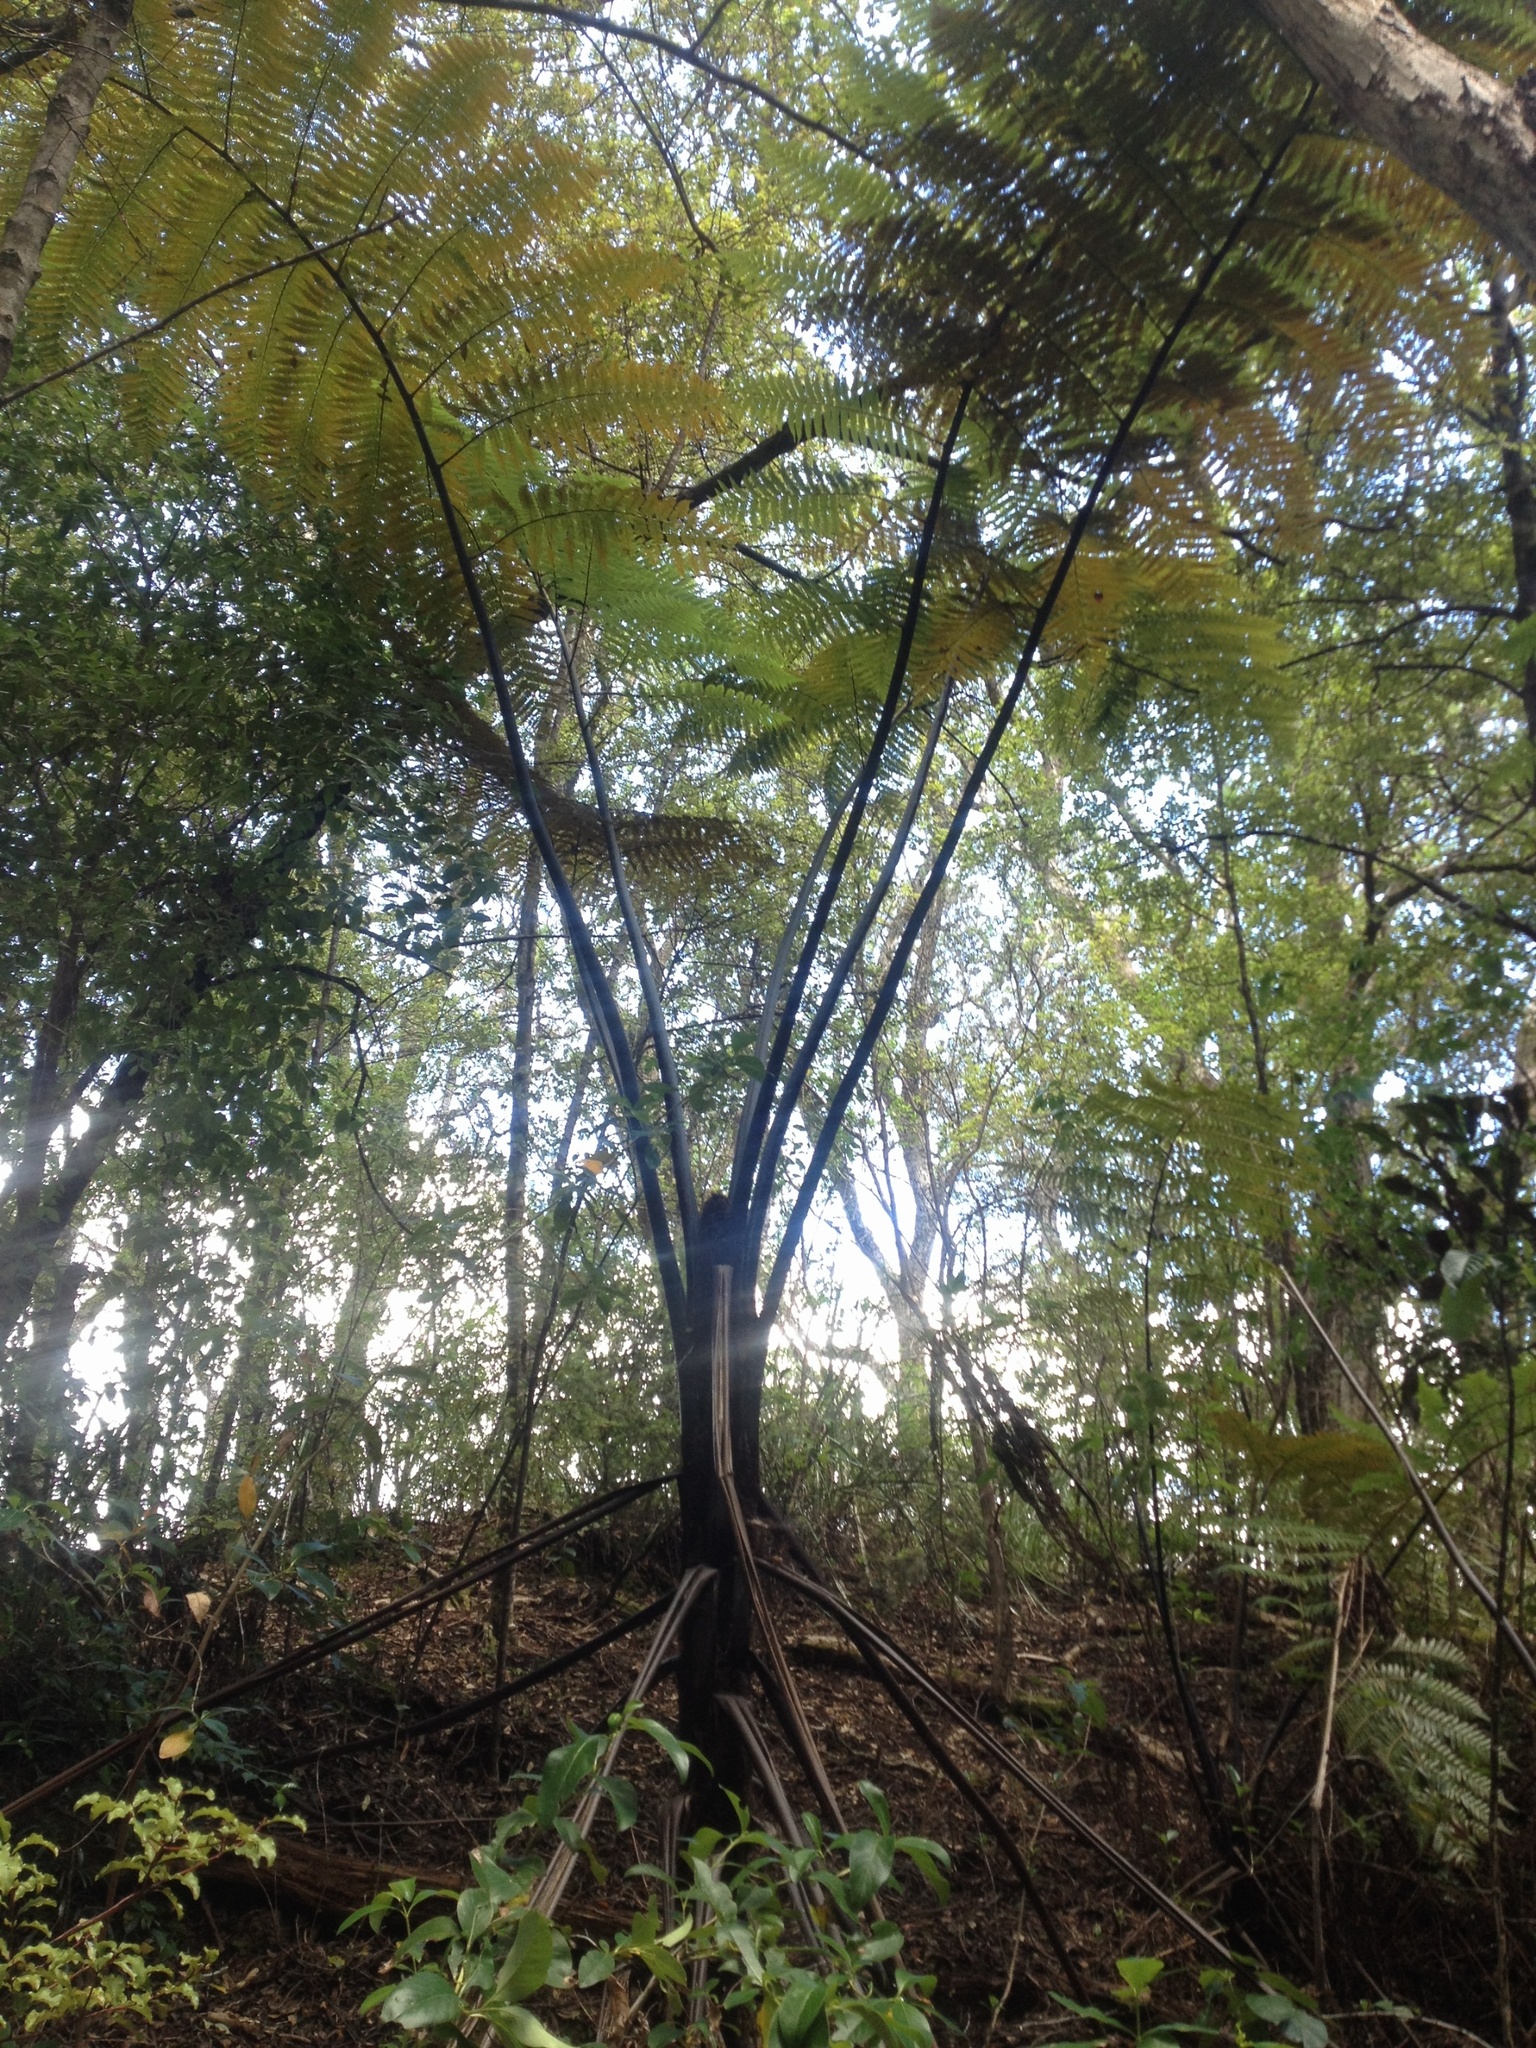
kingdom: Plantae
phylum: Tracheophyta
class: Polypodiopsida
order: Cyatheales
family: Cyatheaceae
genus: Sphaeropteris
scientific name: Sphaeropteris medullaris
